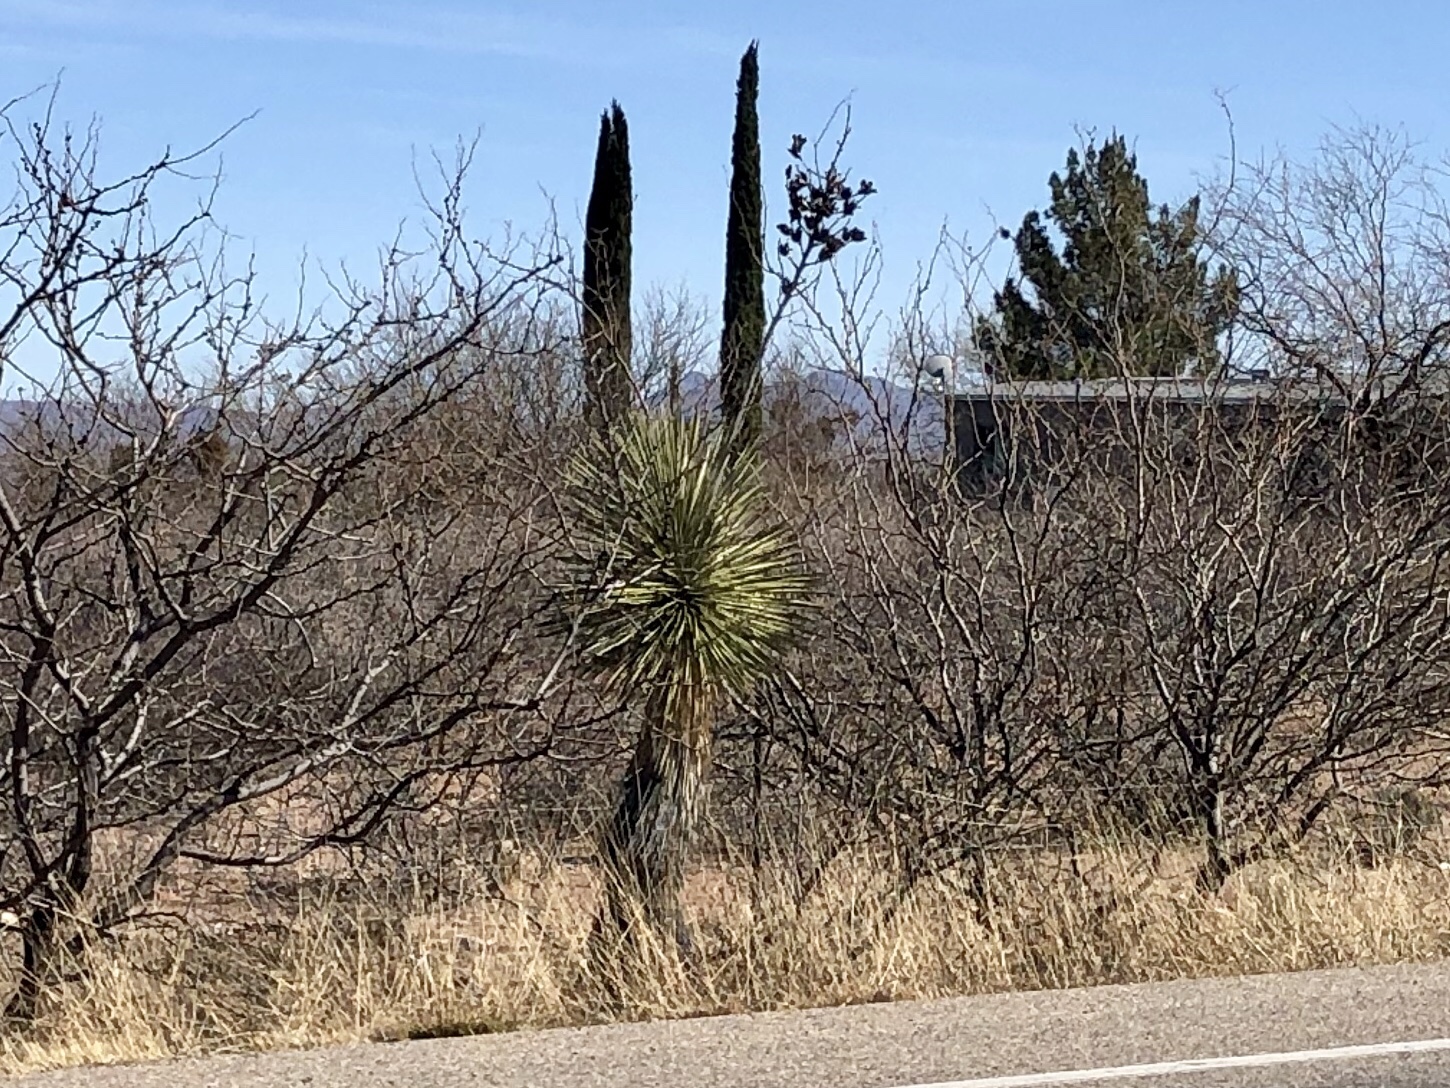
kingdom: Plantae
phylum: Tracheophyta
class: Liliopsida
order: Asparagales
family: Asparagaceae
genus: Yucca
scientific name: Yucca elata
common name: Palmella
